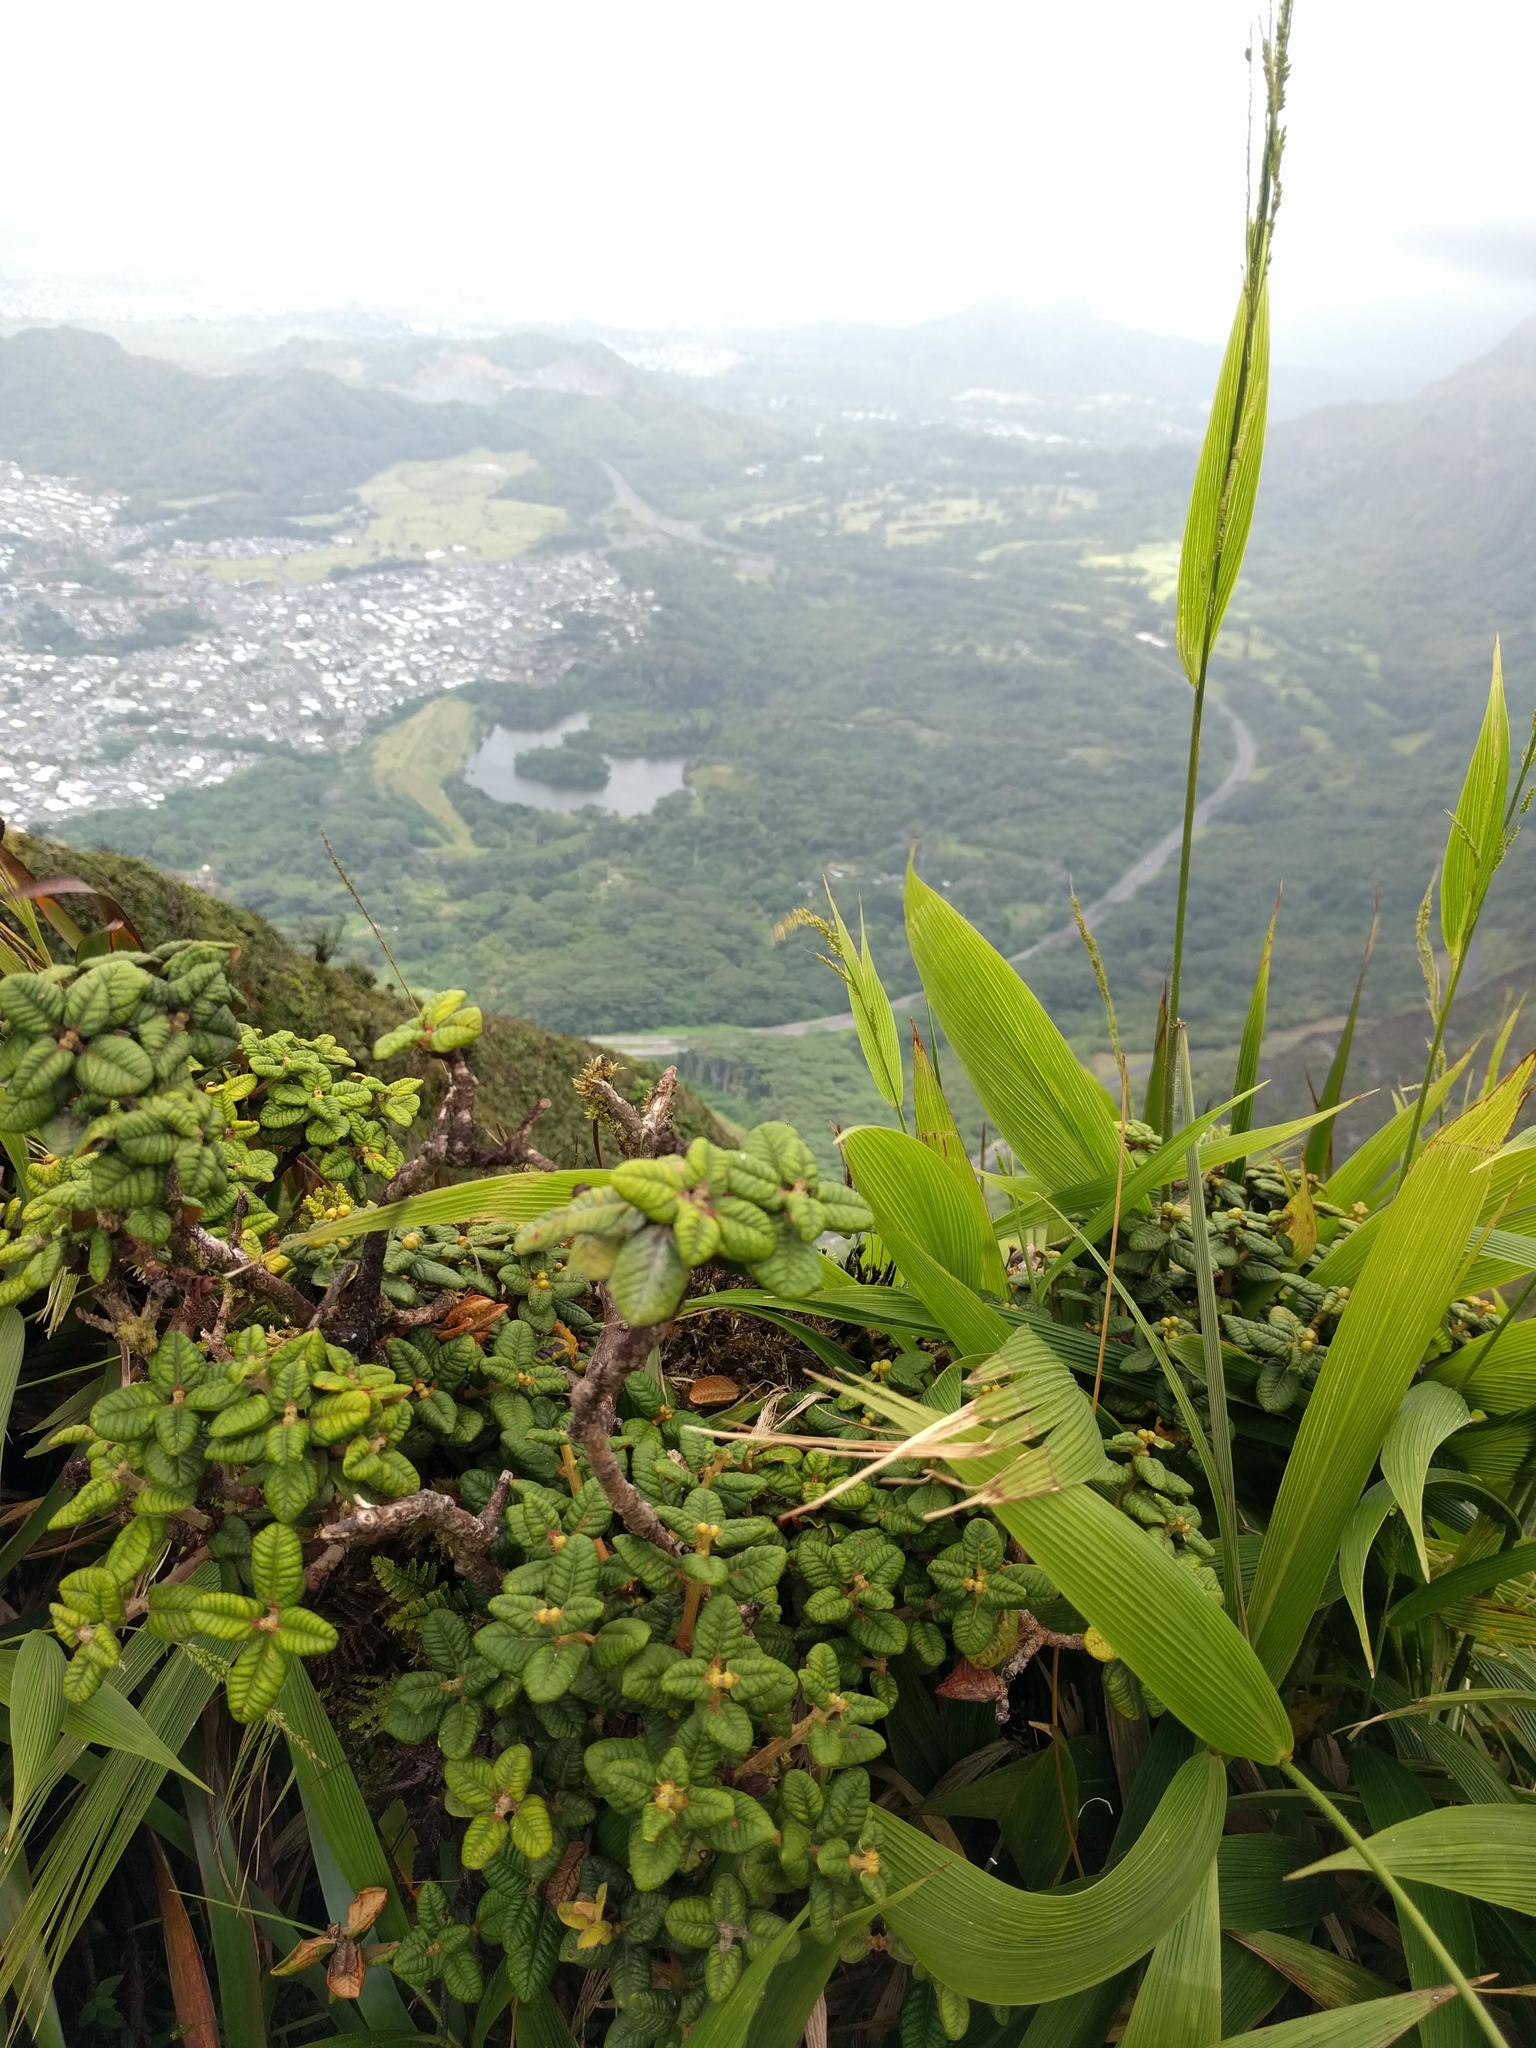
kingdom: Plantae
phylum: Tracheophyta
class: Magnoliopsida
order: Myrtales
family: Myrtaceae
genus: Metrosideros
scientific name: Metrosideros rugosa
